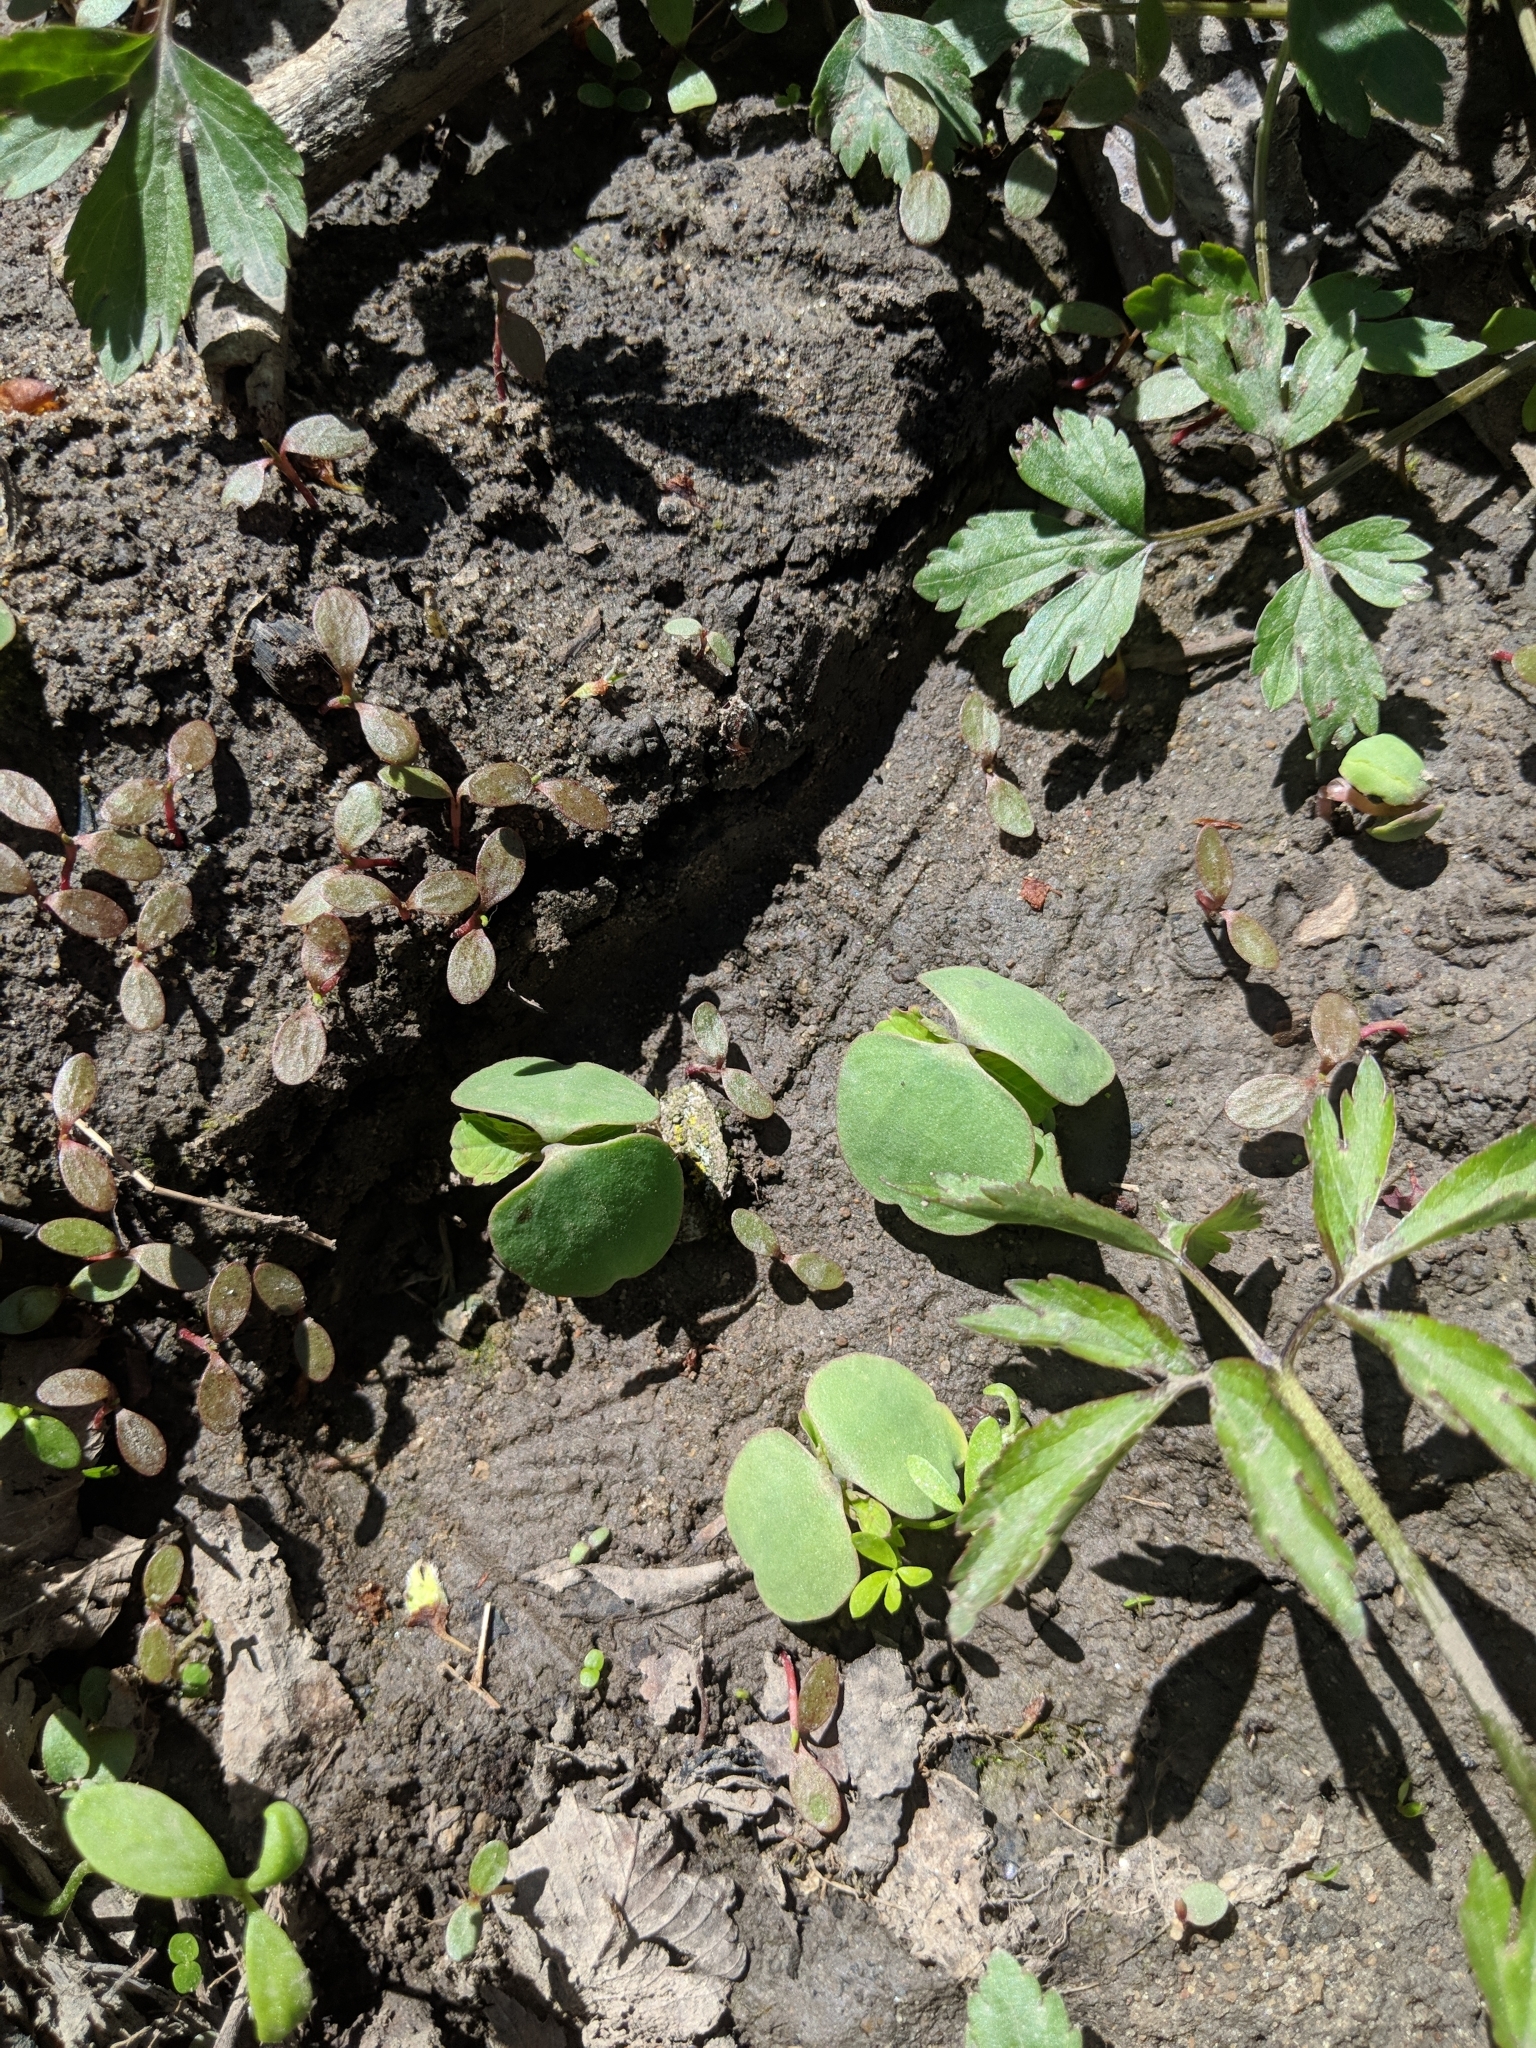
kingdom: Plantae
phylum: Tracheophyta
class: Magnoliopsida
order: Ericales
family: Balsaminaceae
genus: Impatiens
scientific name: Impatiens capensis
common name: Orange balsam
